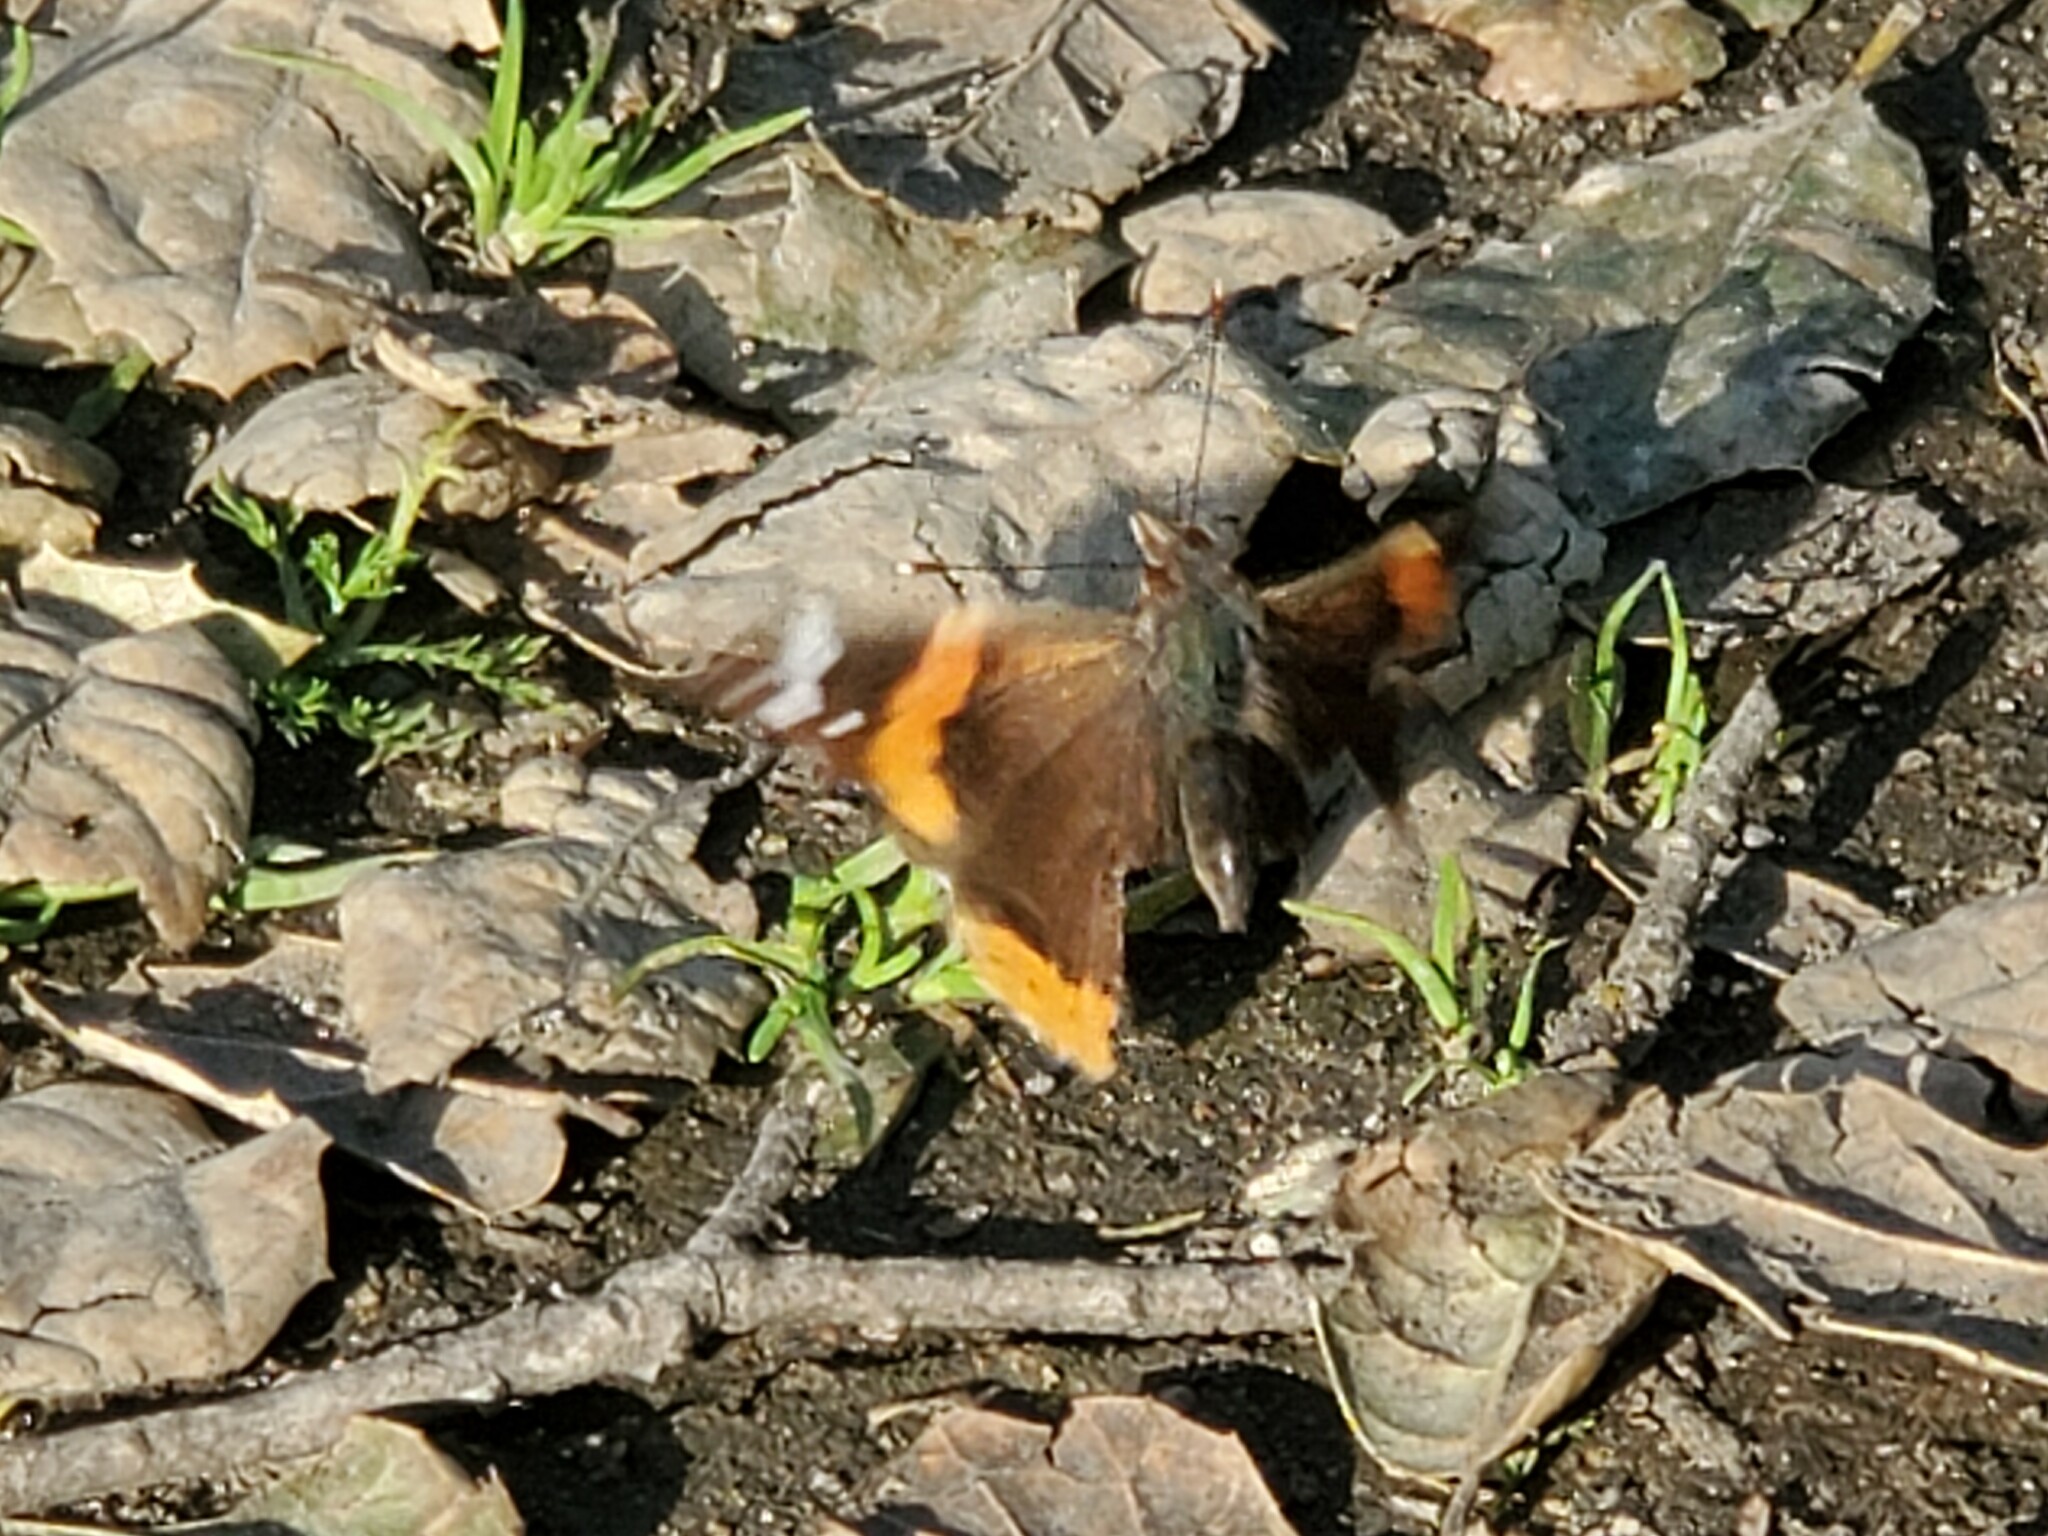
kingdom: Animalia
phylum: Arthropoda
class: Insecta
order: Lepidoptera
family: Nymphalidae
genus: Vanessa
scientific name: Vanessa atalanta
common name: Red admiral
